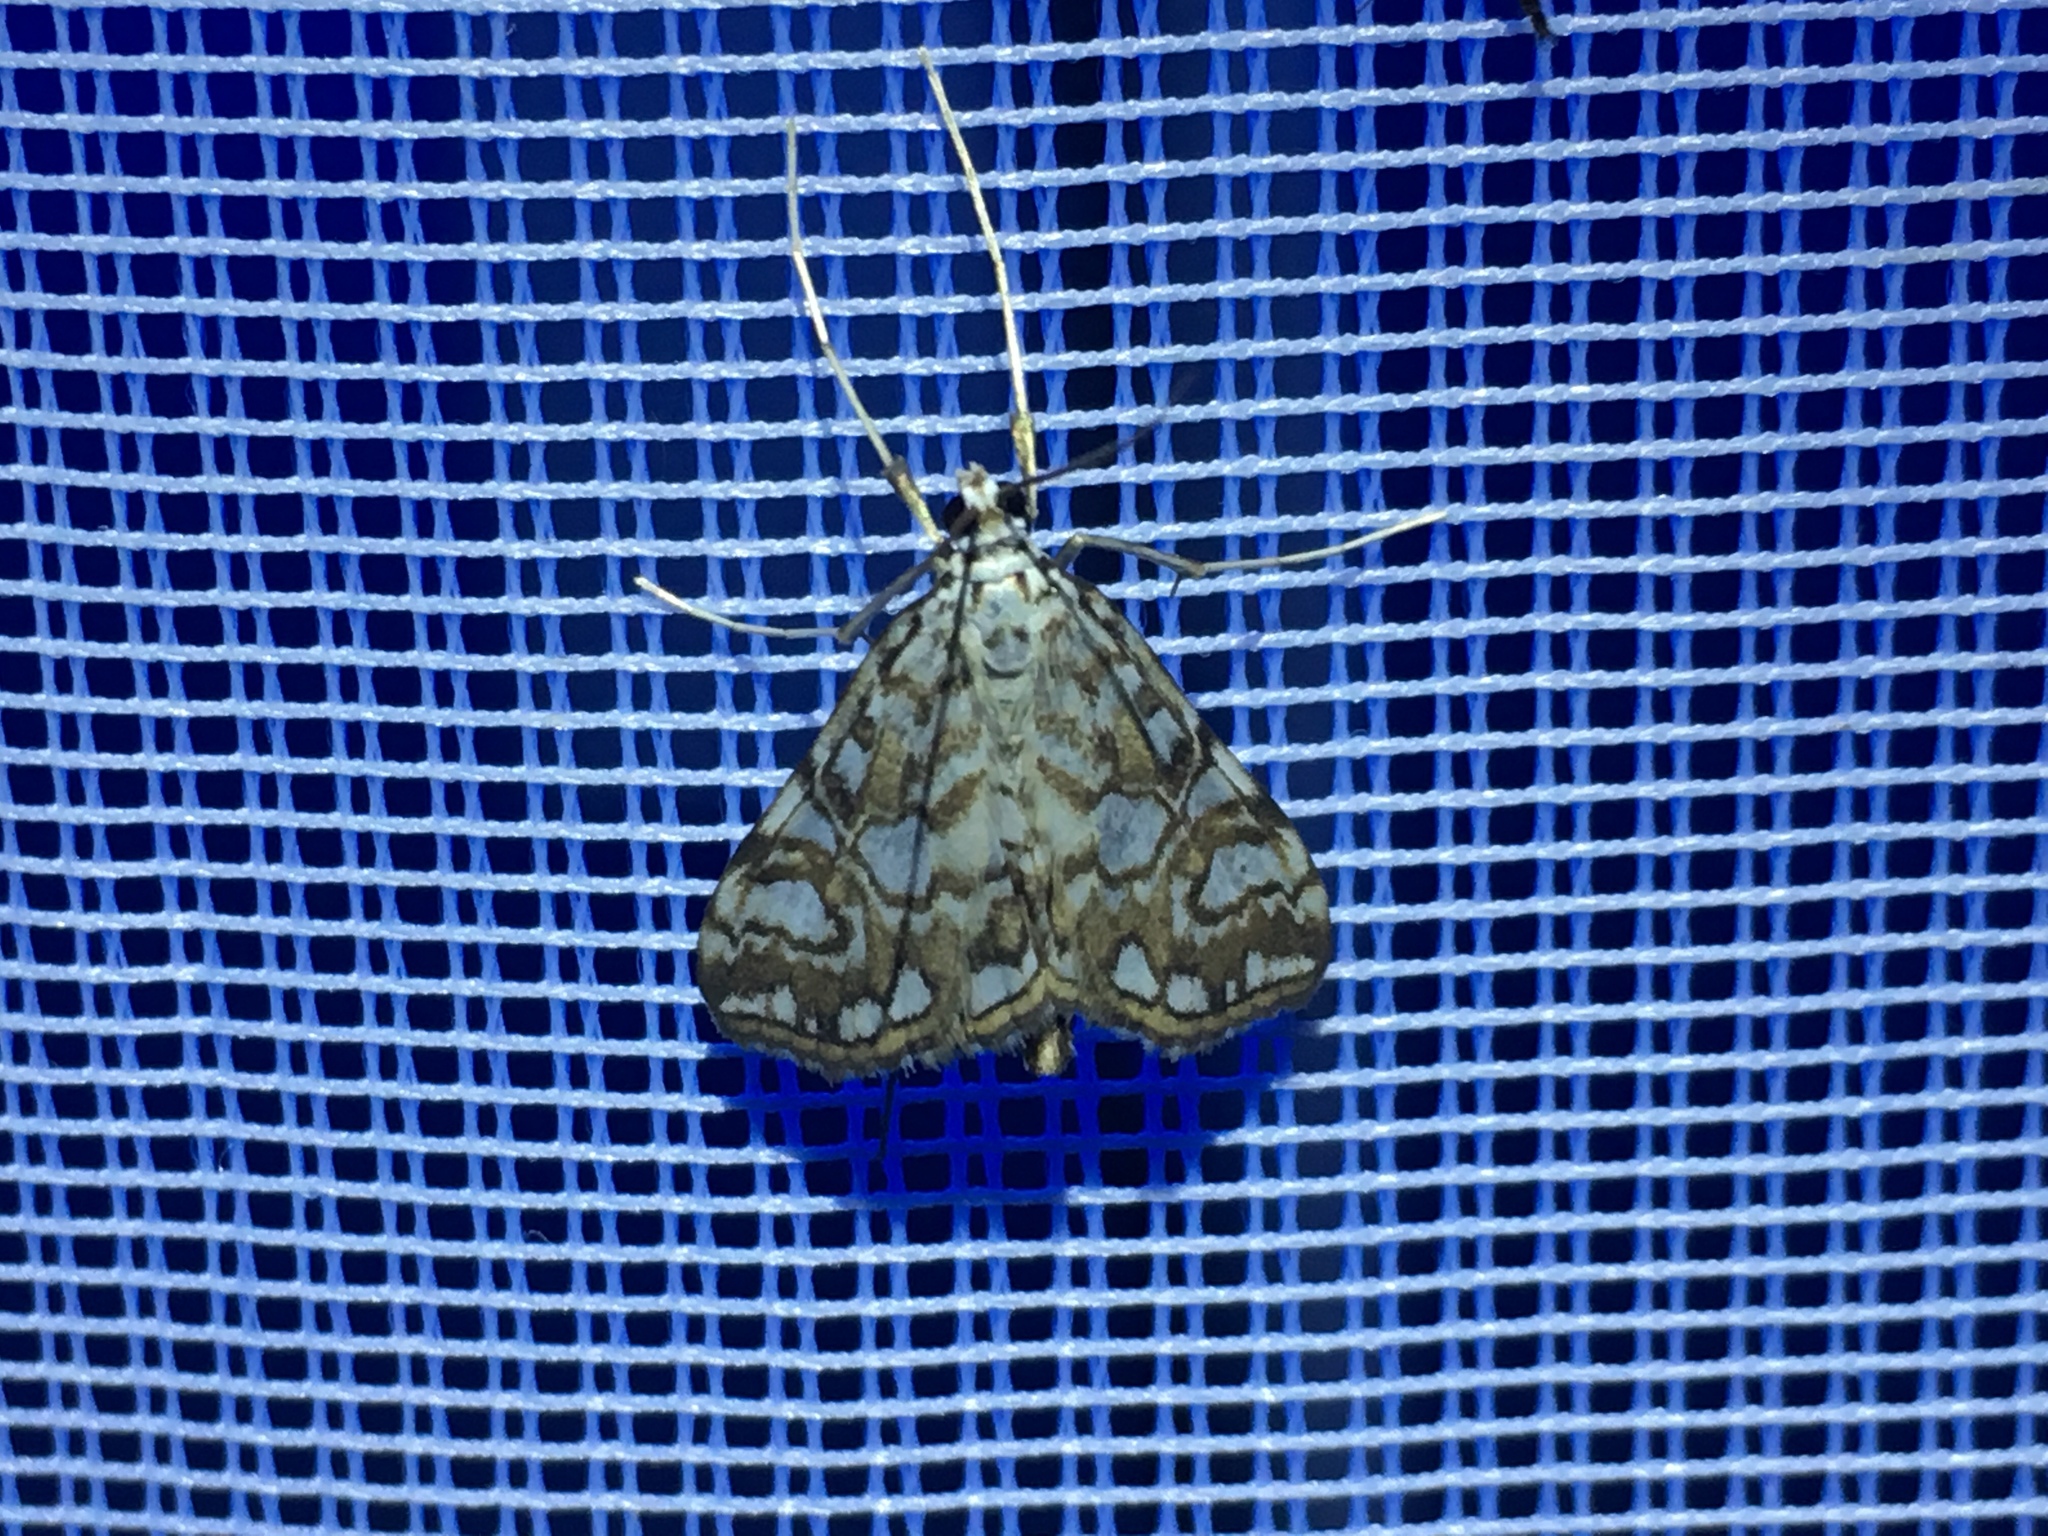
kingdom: Animalia
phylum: Arthropoda
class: Insecta
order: Lepidoptera
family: Crambidae
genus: Elophila
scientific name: Elophila nymphaeata
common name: Brown china-mark
